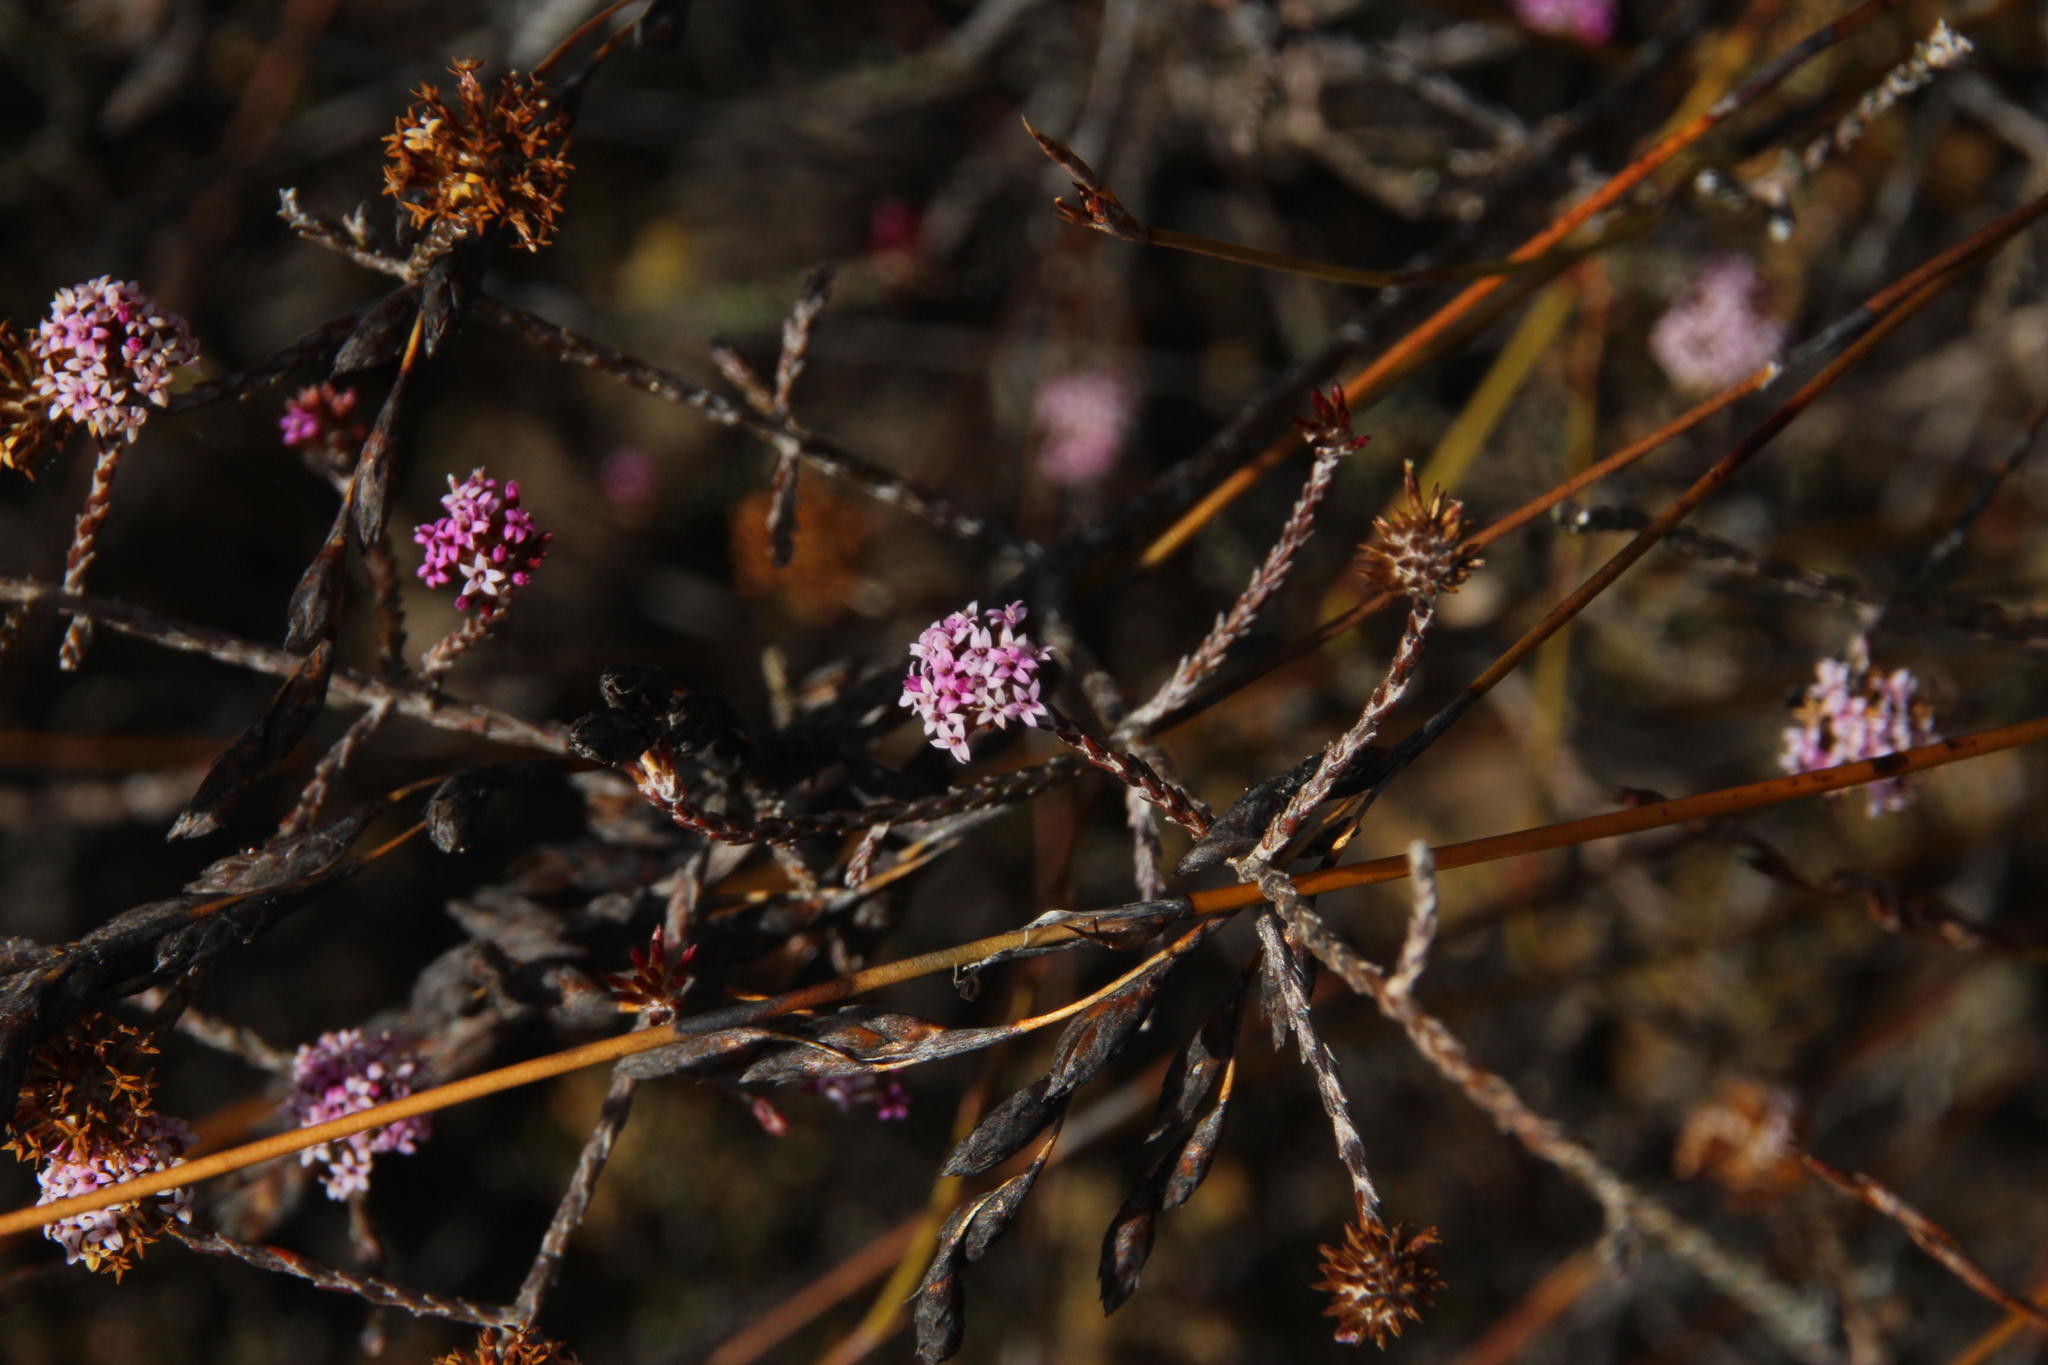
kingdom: Plantae
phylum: Tracheophyta
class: Magnoliopsida
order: Asterales
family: Asteraceae
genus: Stoebe
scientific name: Stoebe fusca
